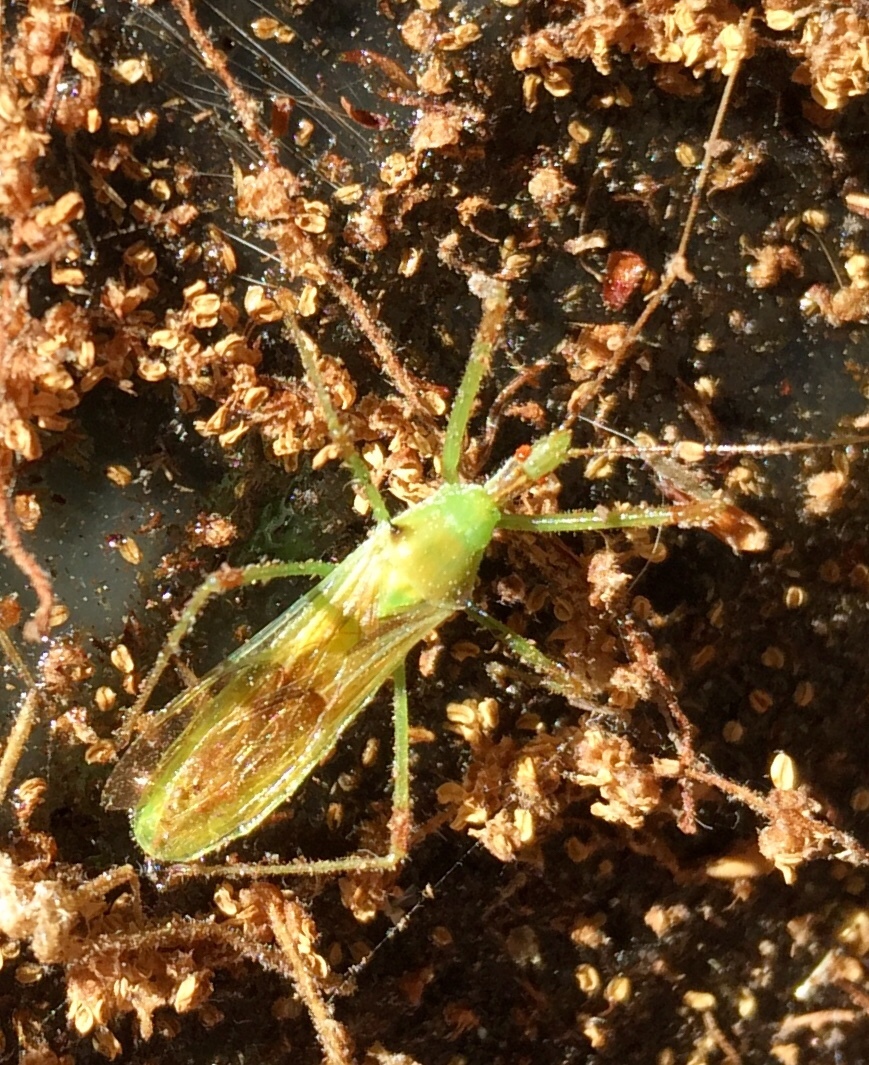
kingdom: Animalia
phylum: Arthropoda
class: Insecta
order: Hemiptera
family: Reduviidae
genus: Zelus
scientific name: Zelus luridus
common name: Pale green assassin bug
